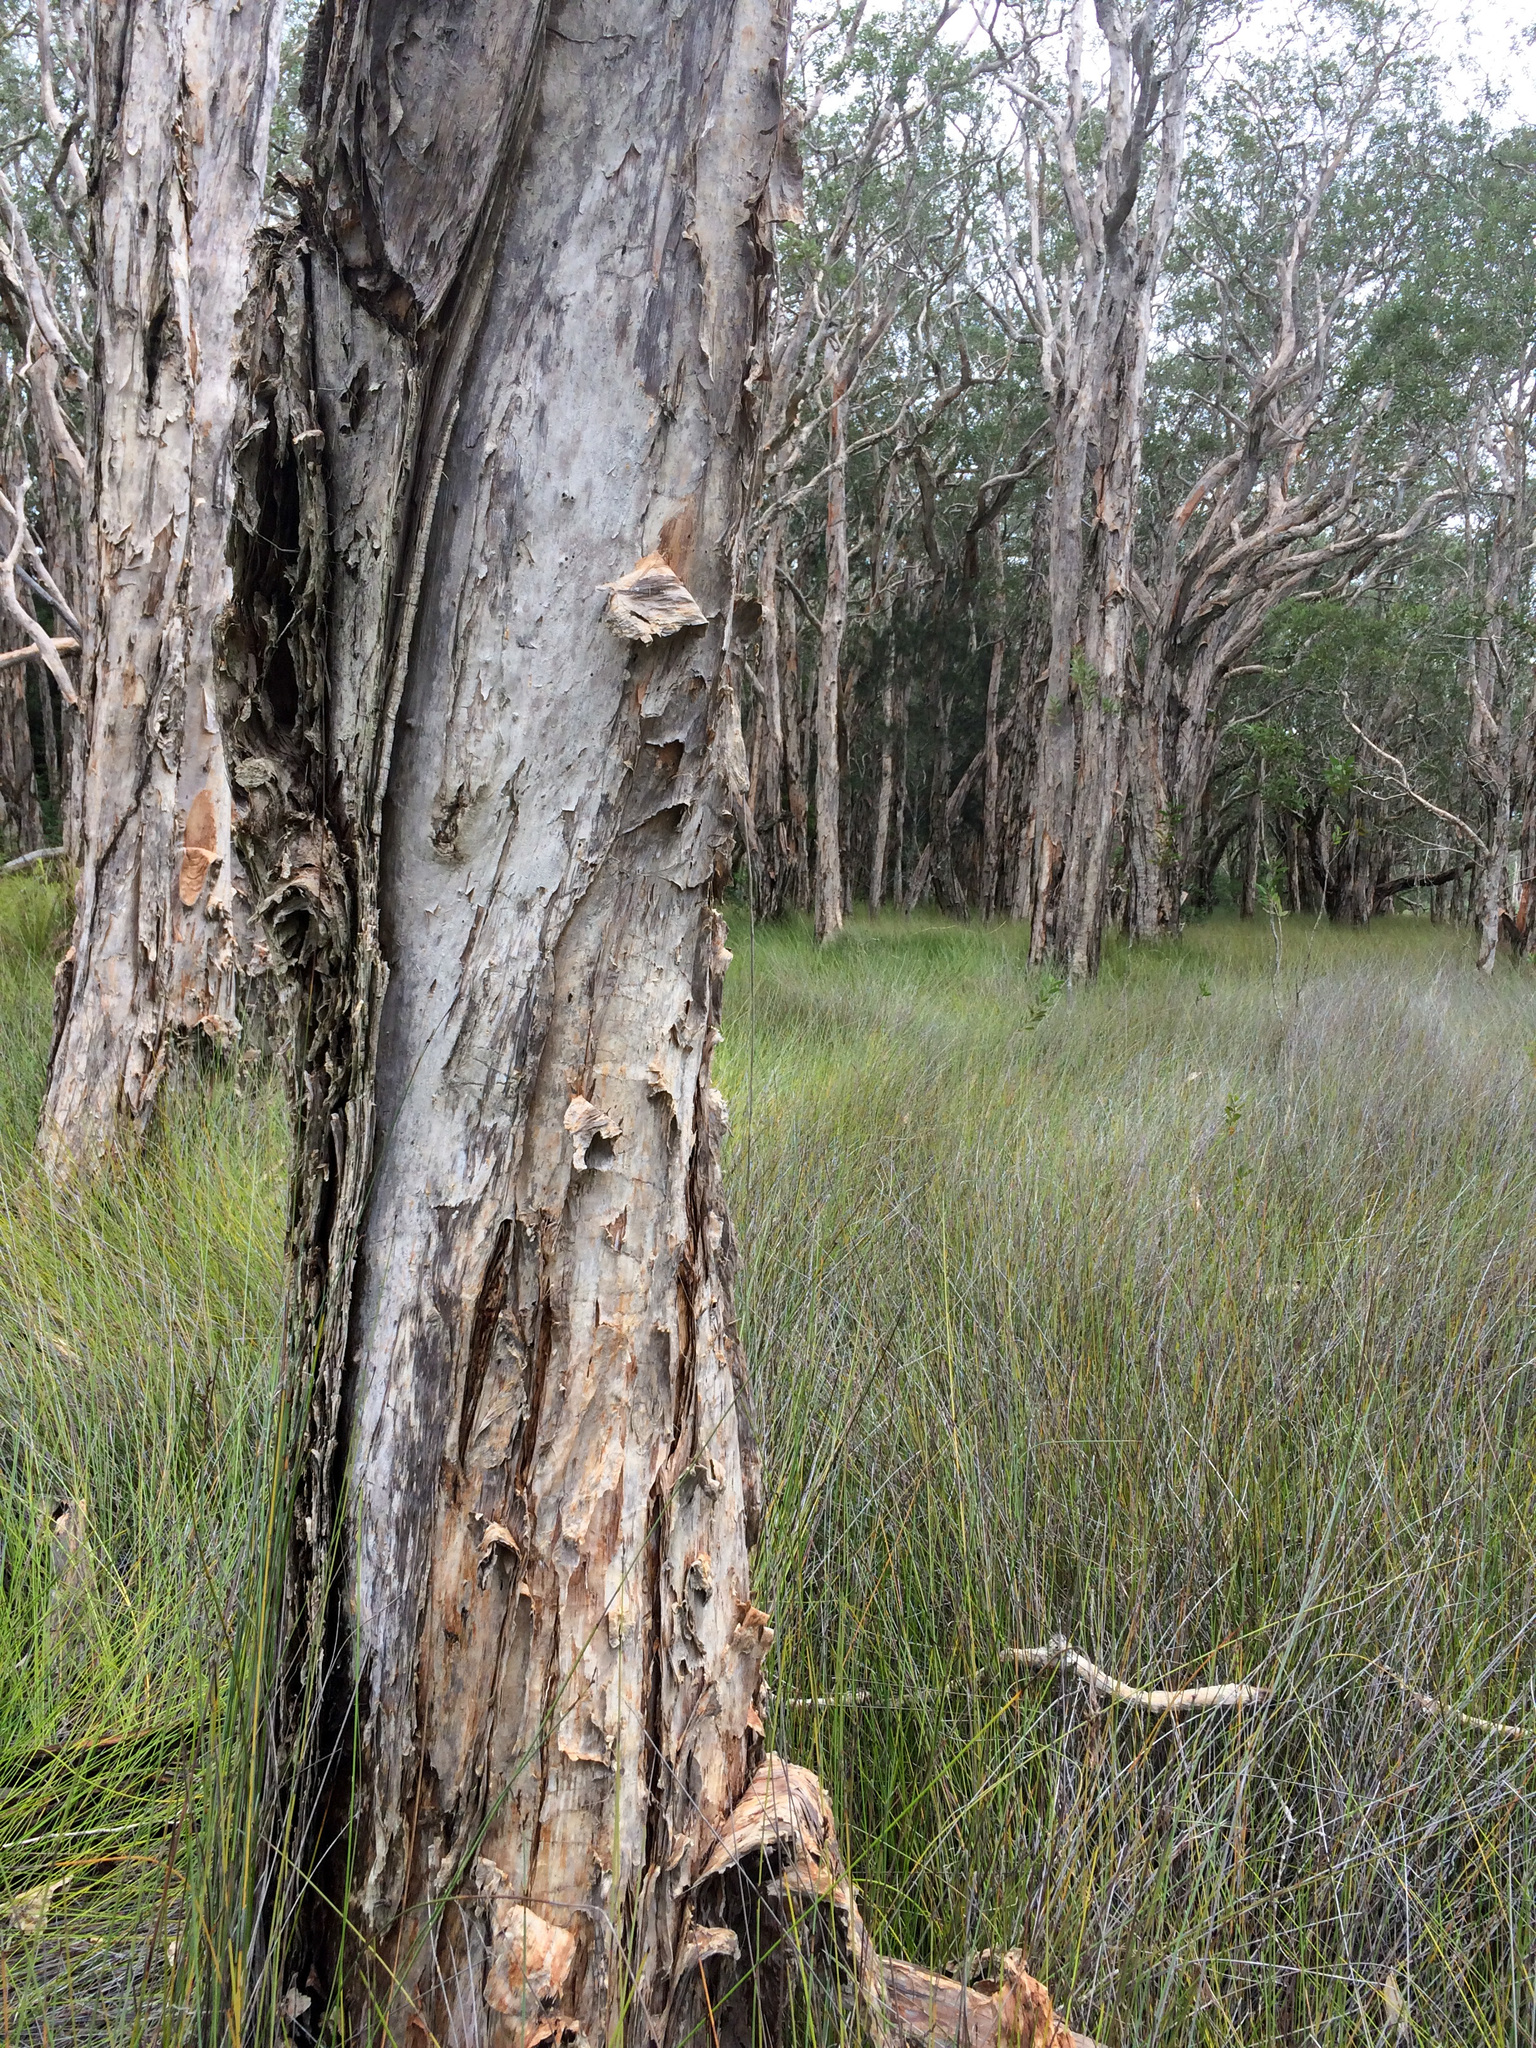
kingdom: Plantae
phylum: Tracheophyta
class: Magnoliopsida
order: Myrtales
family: Myrtaceae
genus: Melaleuca
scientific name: Melaleuca quinquenervia
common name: Punktree
